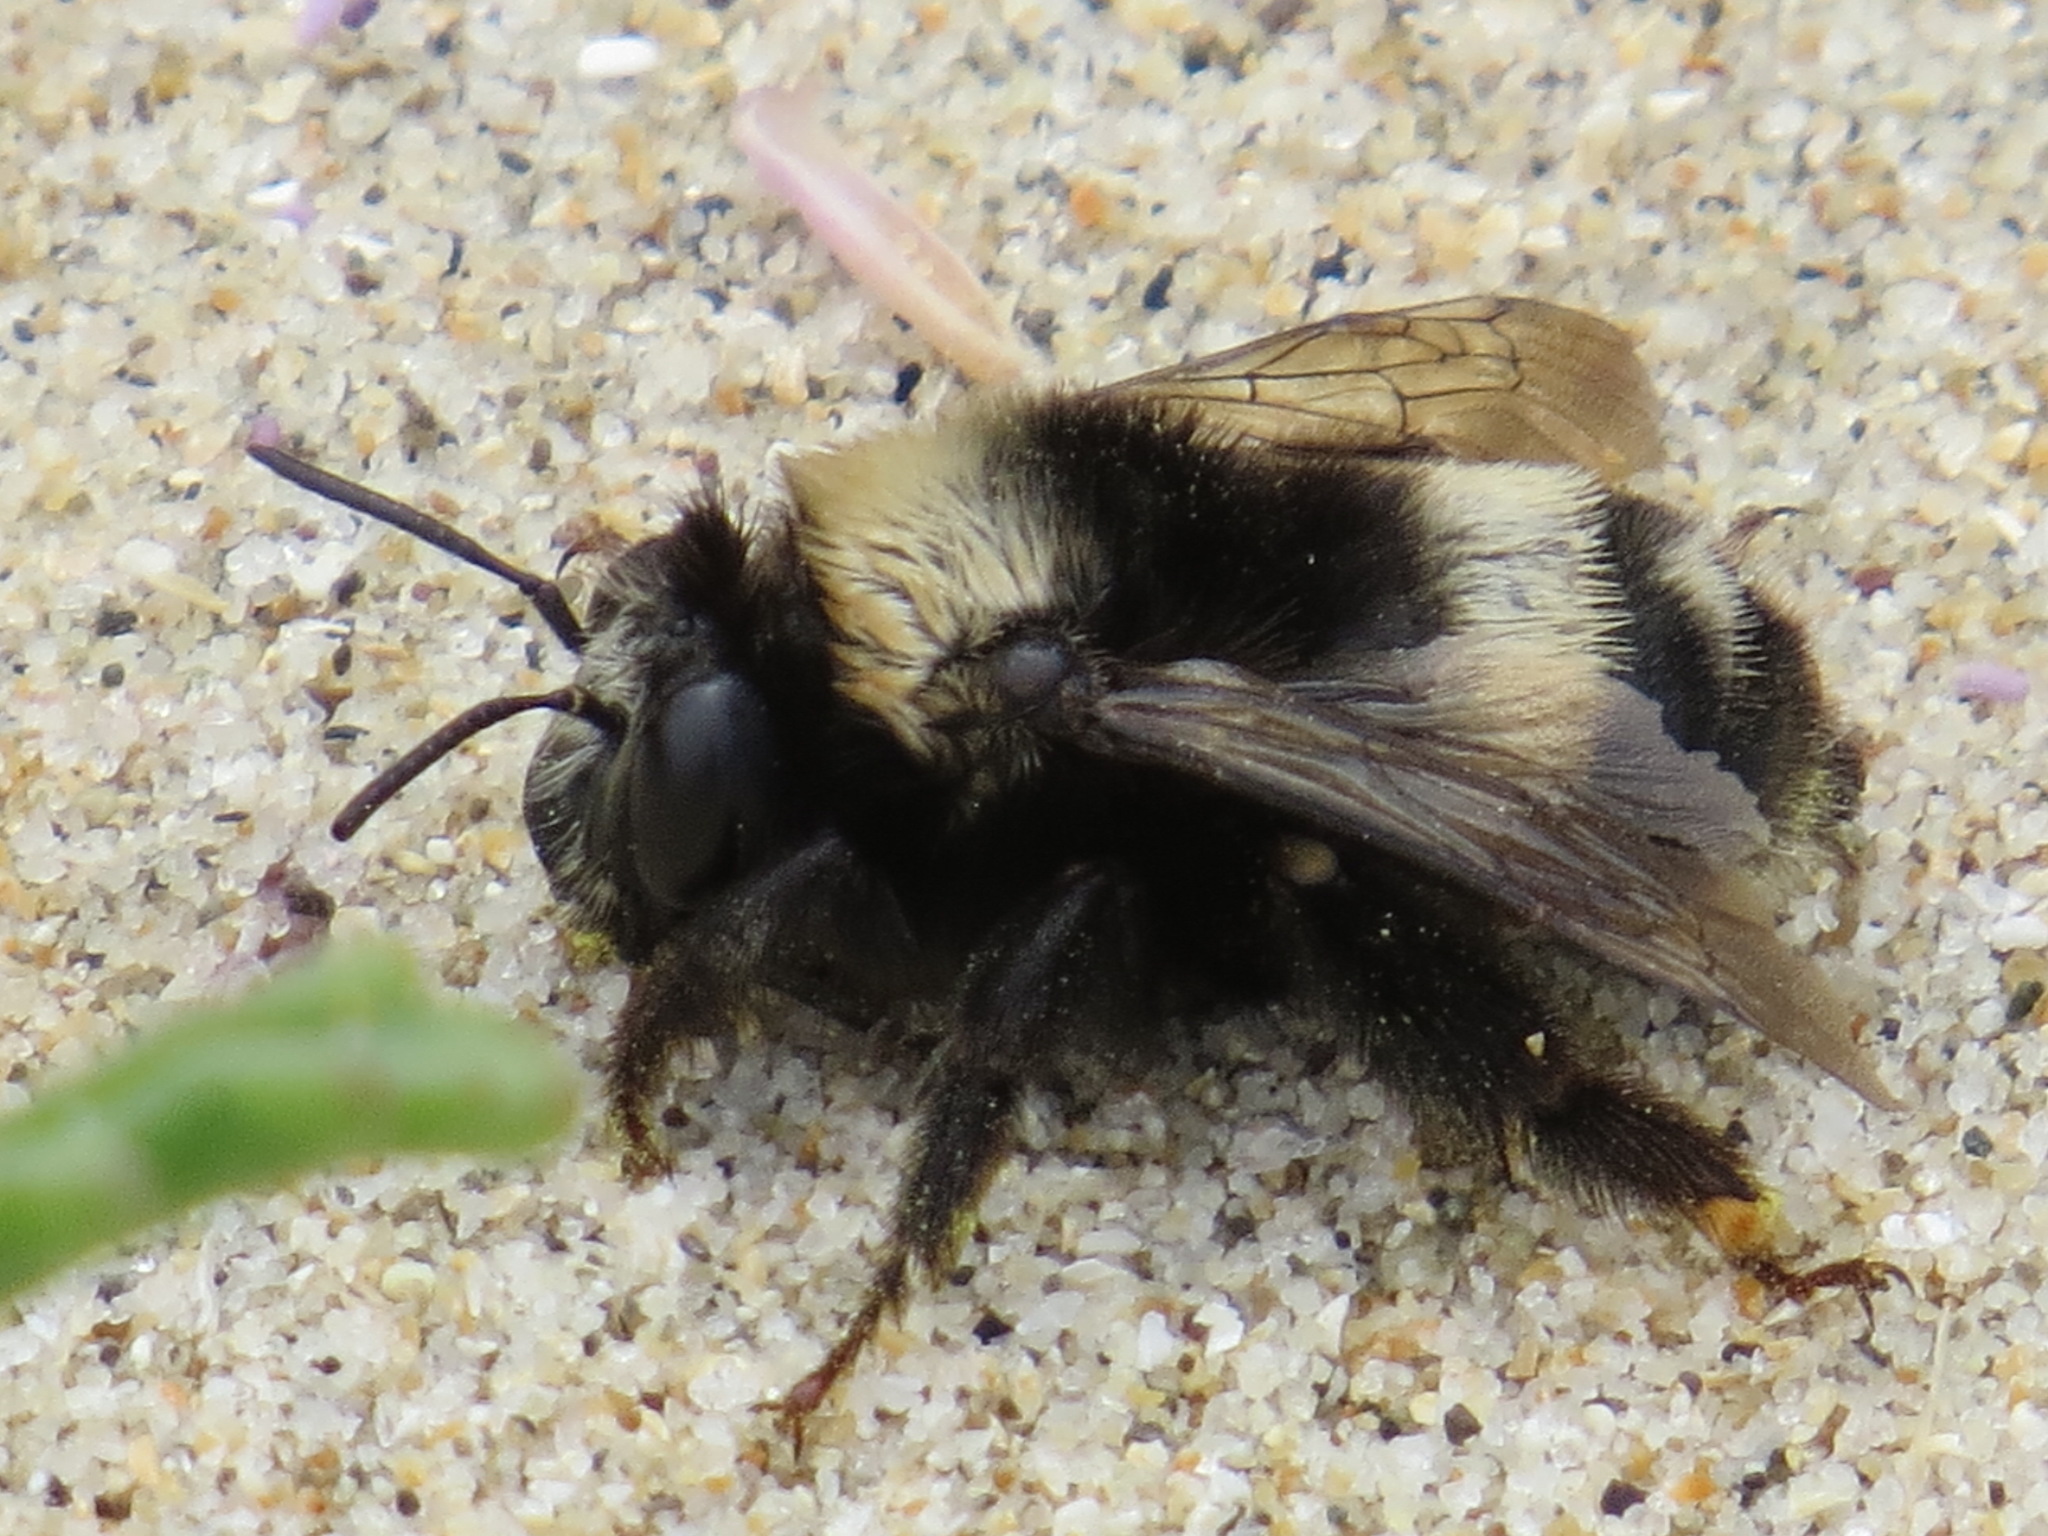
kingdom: Animalia
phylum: Arthropoda
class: Insecta
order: Hymenoptera
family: Apidae
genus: Anthophora
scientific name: Anthophora bomboides
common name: Bumble-bee-mimic digger bee
